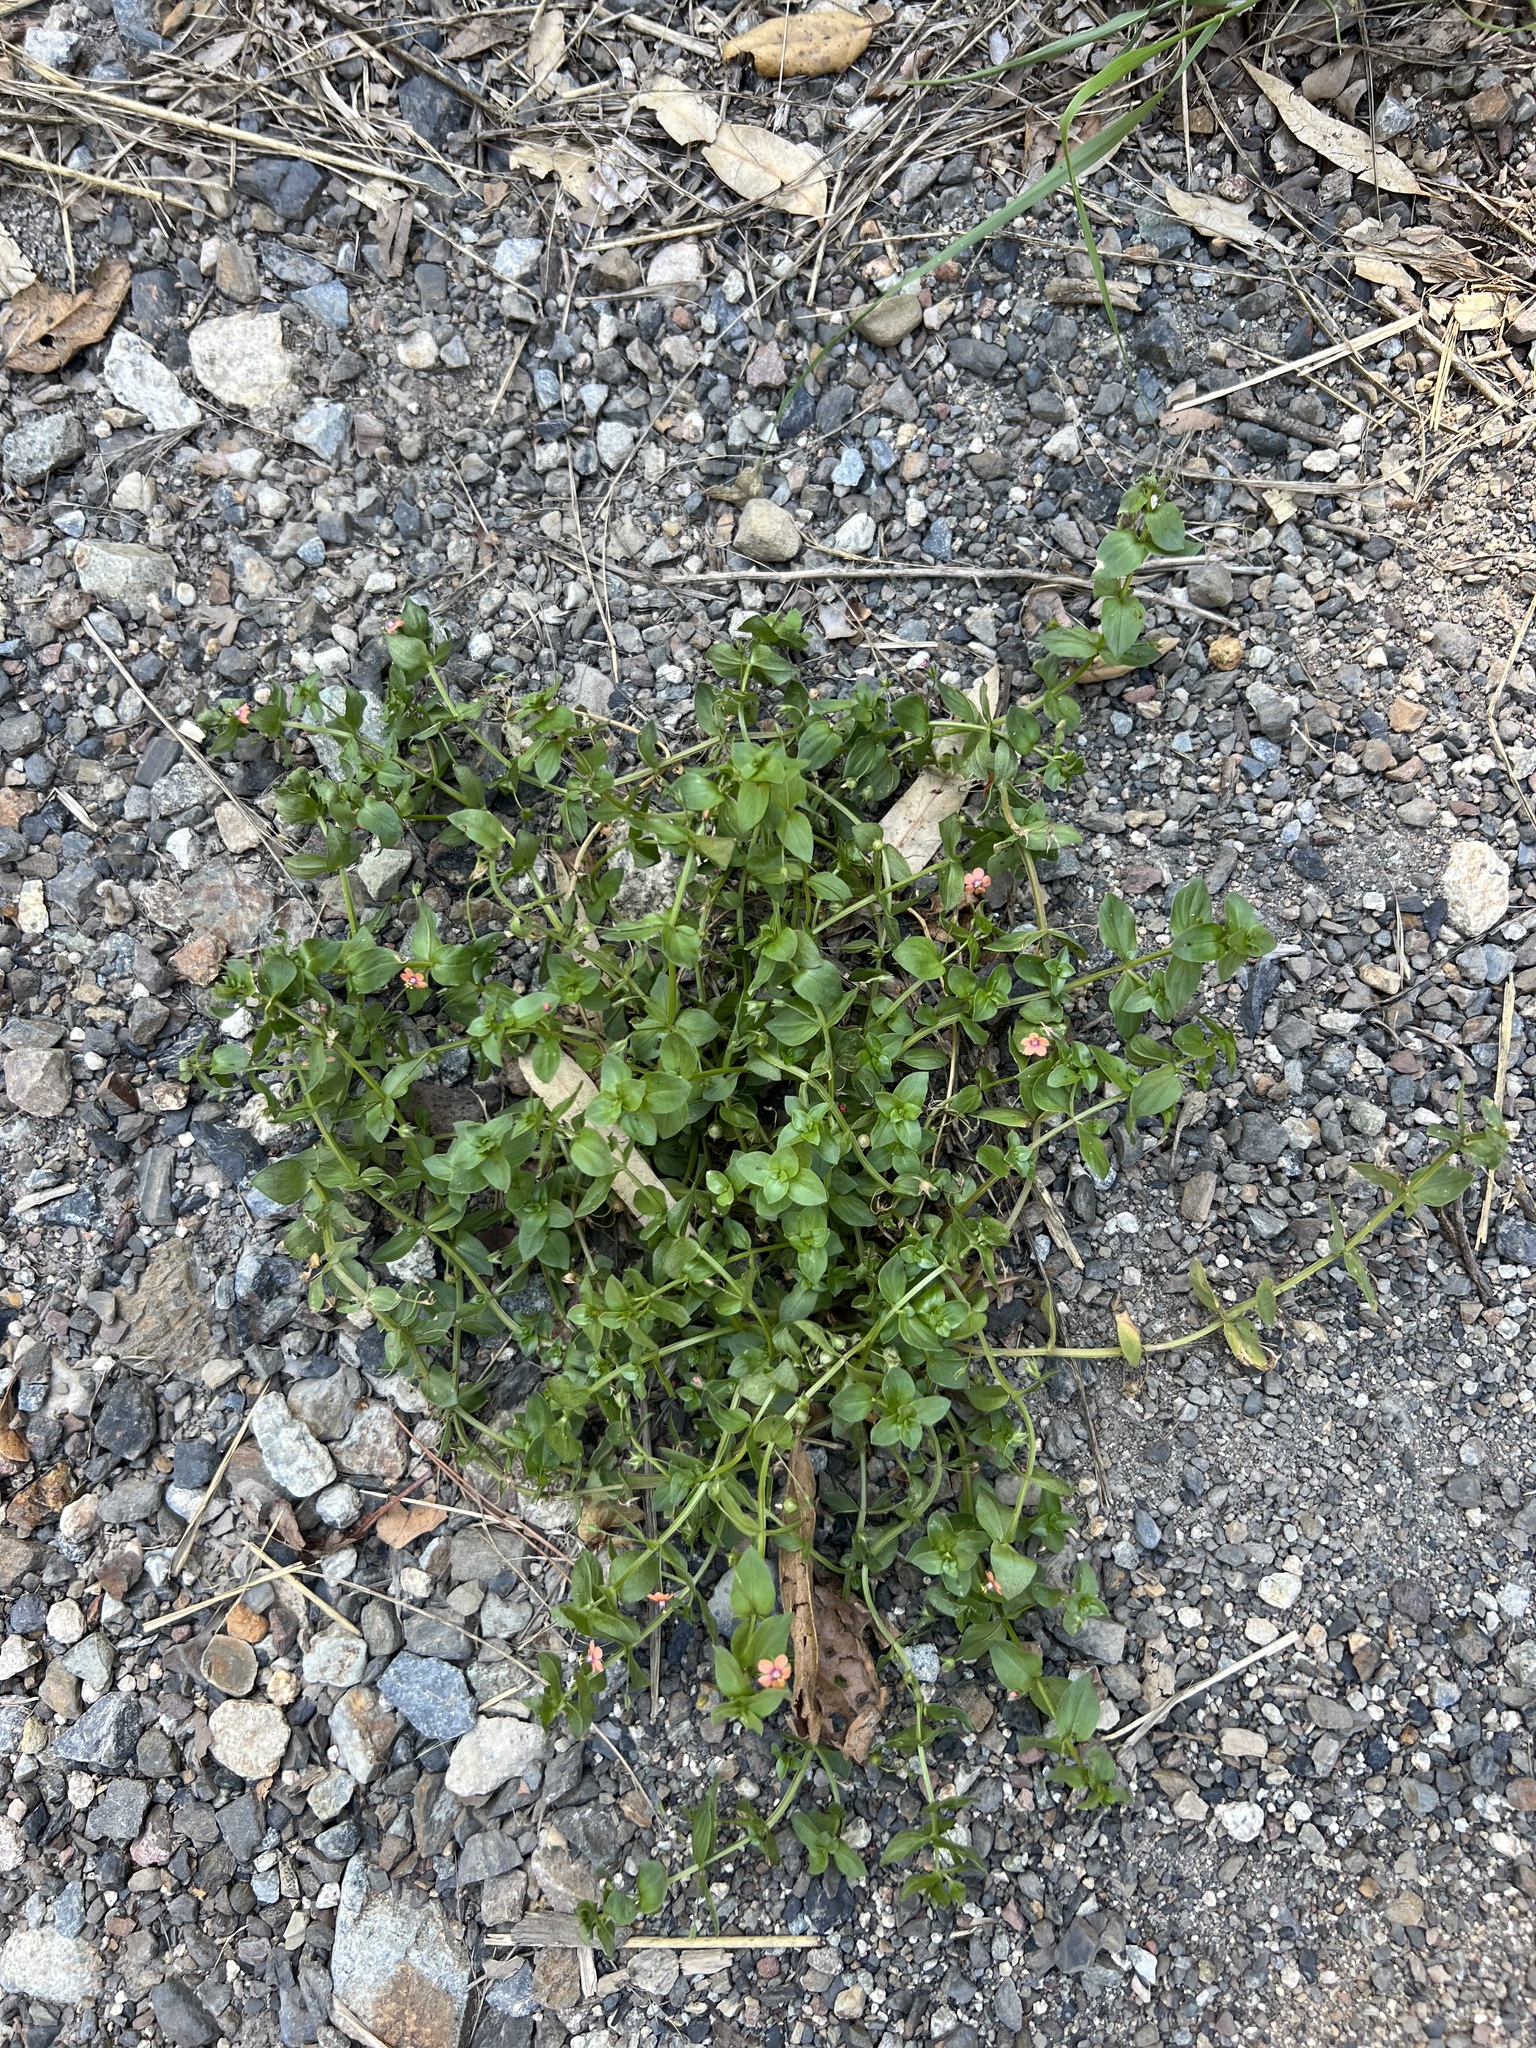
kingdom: Plantae
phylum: Tracheophyta
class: Magnoliopsida
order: Ericales
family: Primulaceae
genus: Lysimachia
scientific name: Lysimachia arvensis
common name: Scarlet pimpernel
